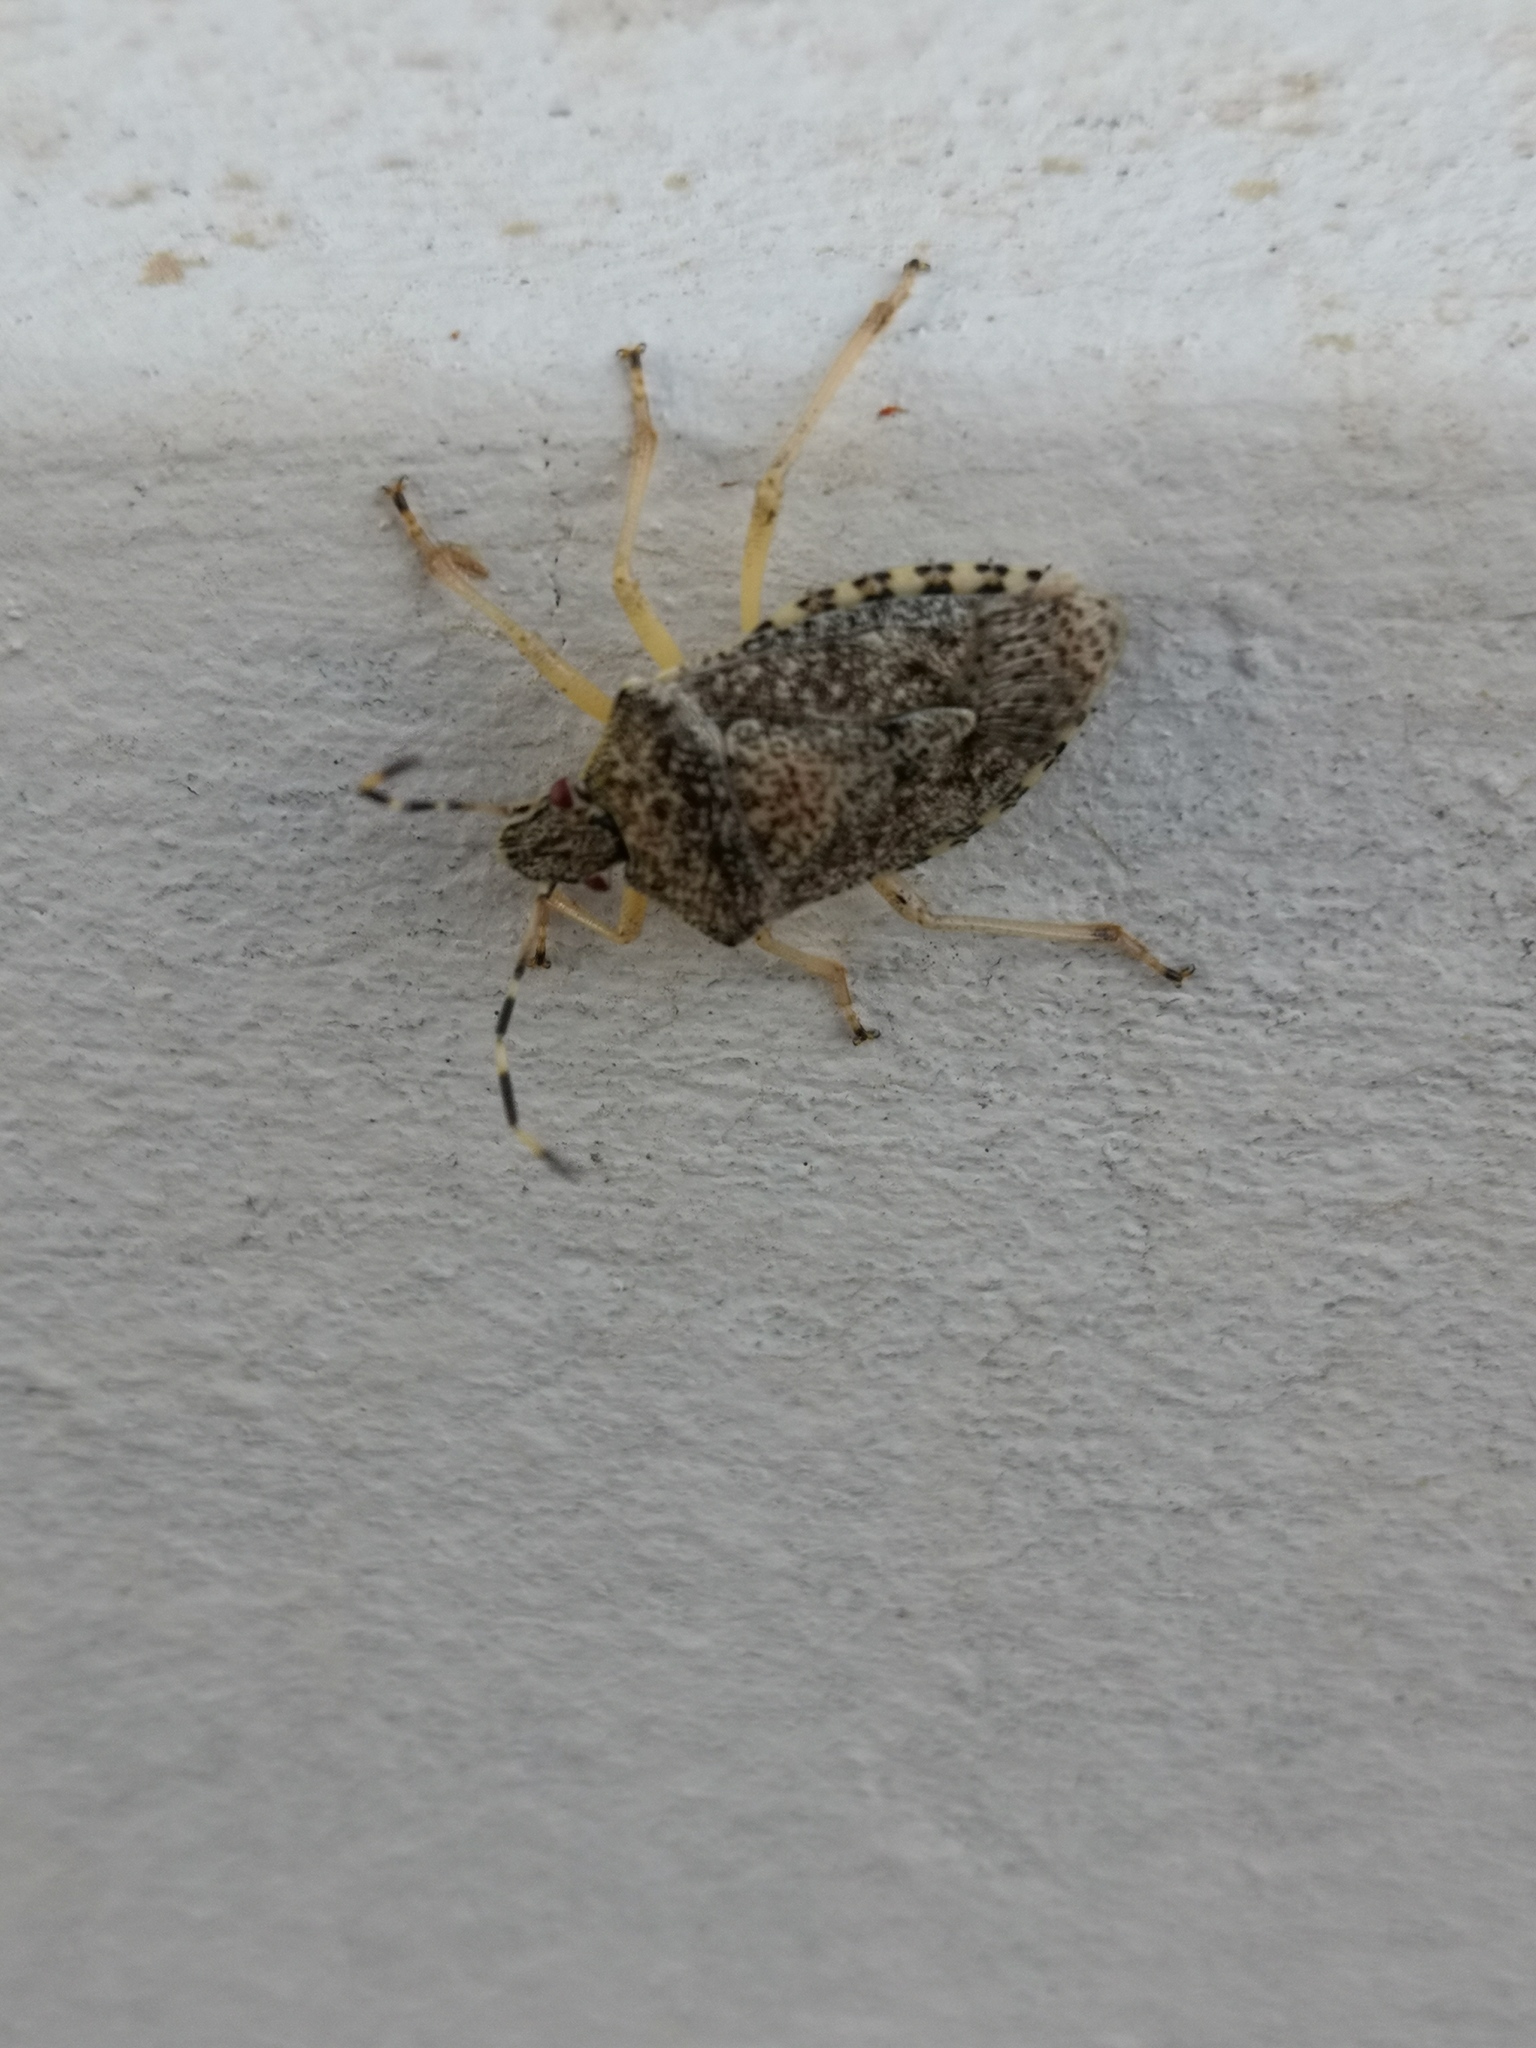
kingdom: Animalia
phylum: Arthropoda
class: Insecta
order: Hemiptera
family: Pentatomidae
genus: Rhaphigaster
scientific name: Rhaphigaster nebulosa
